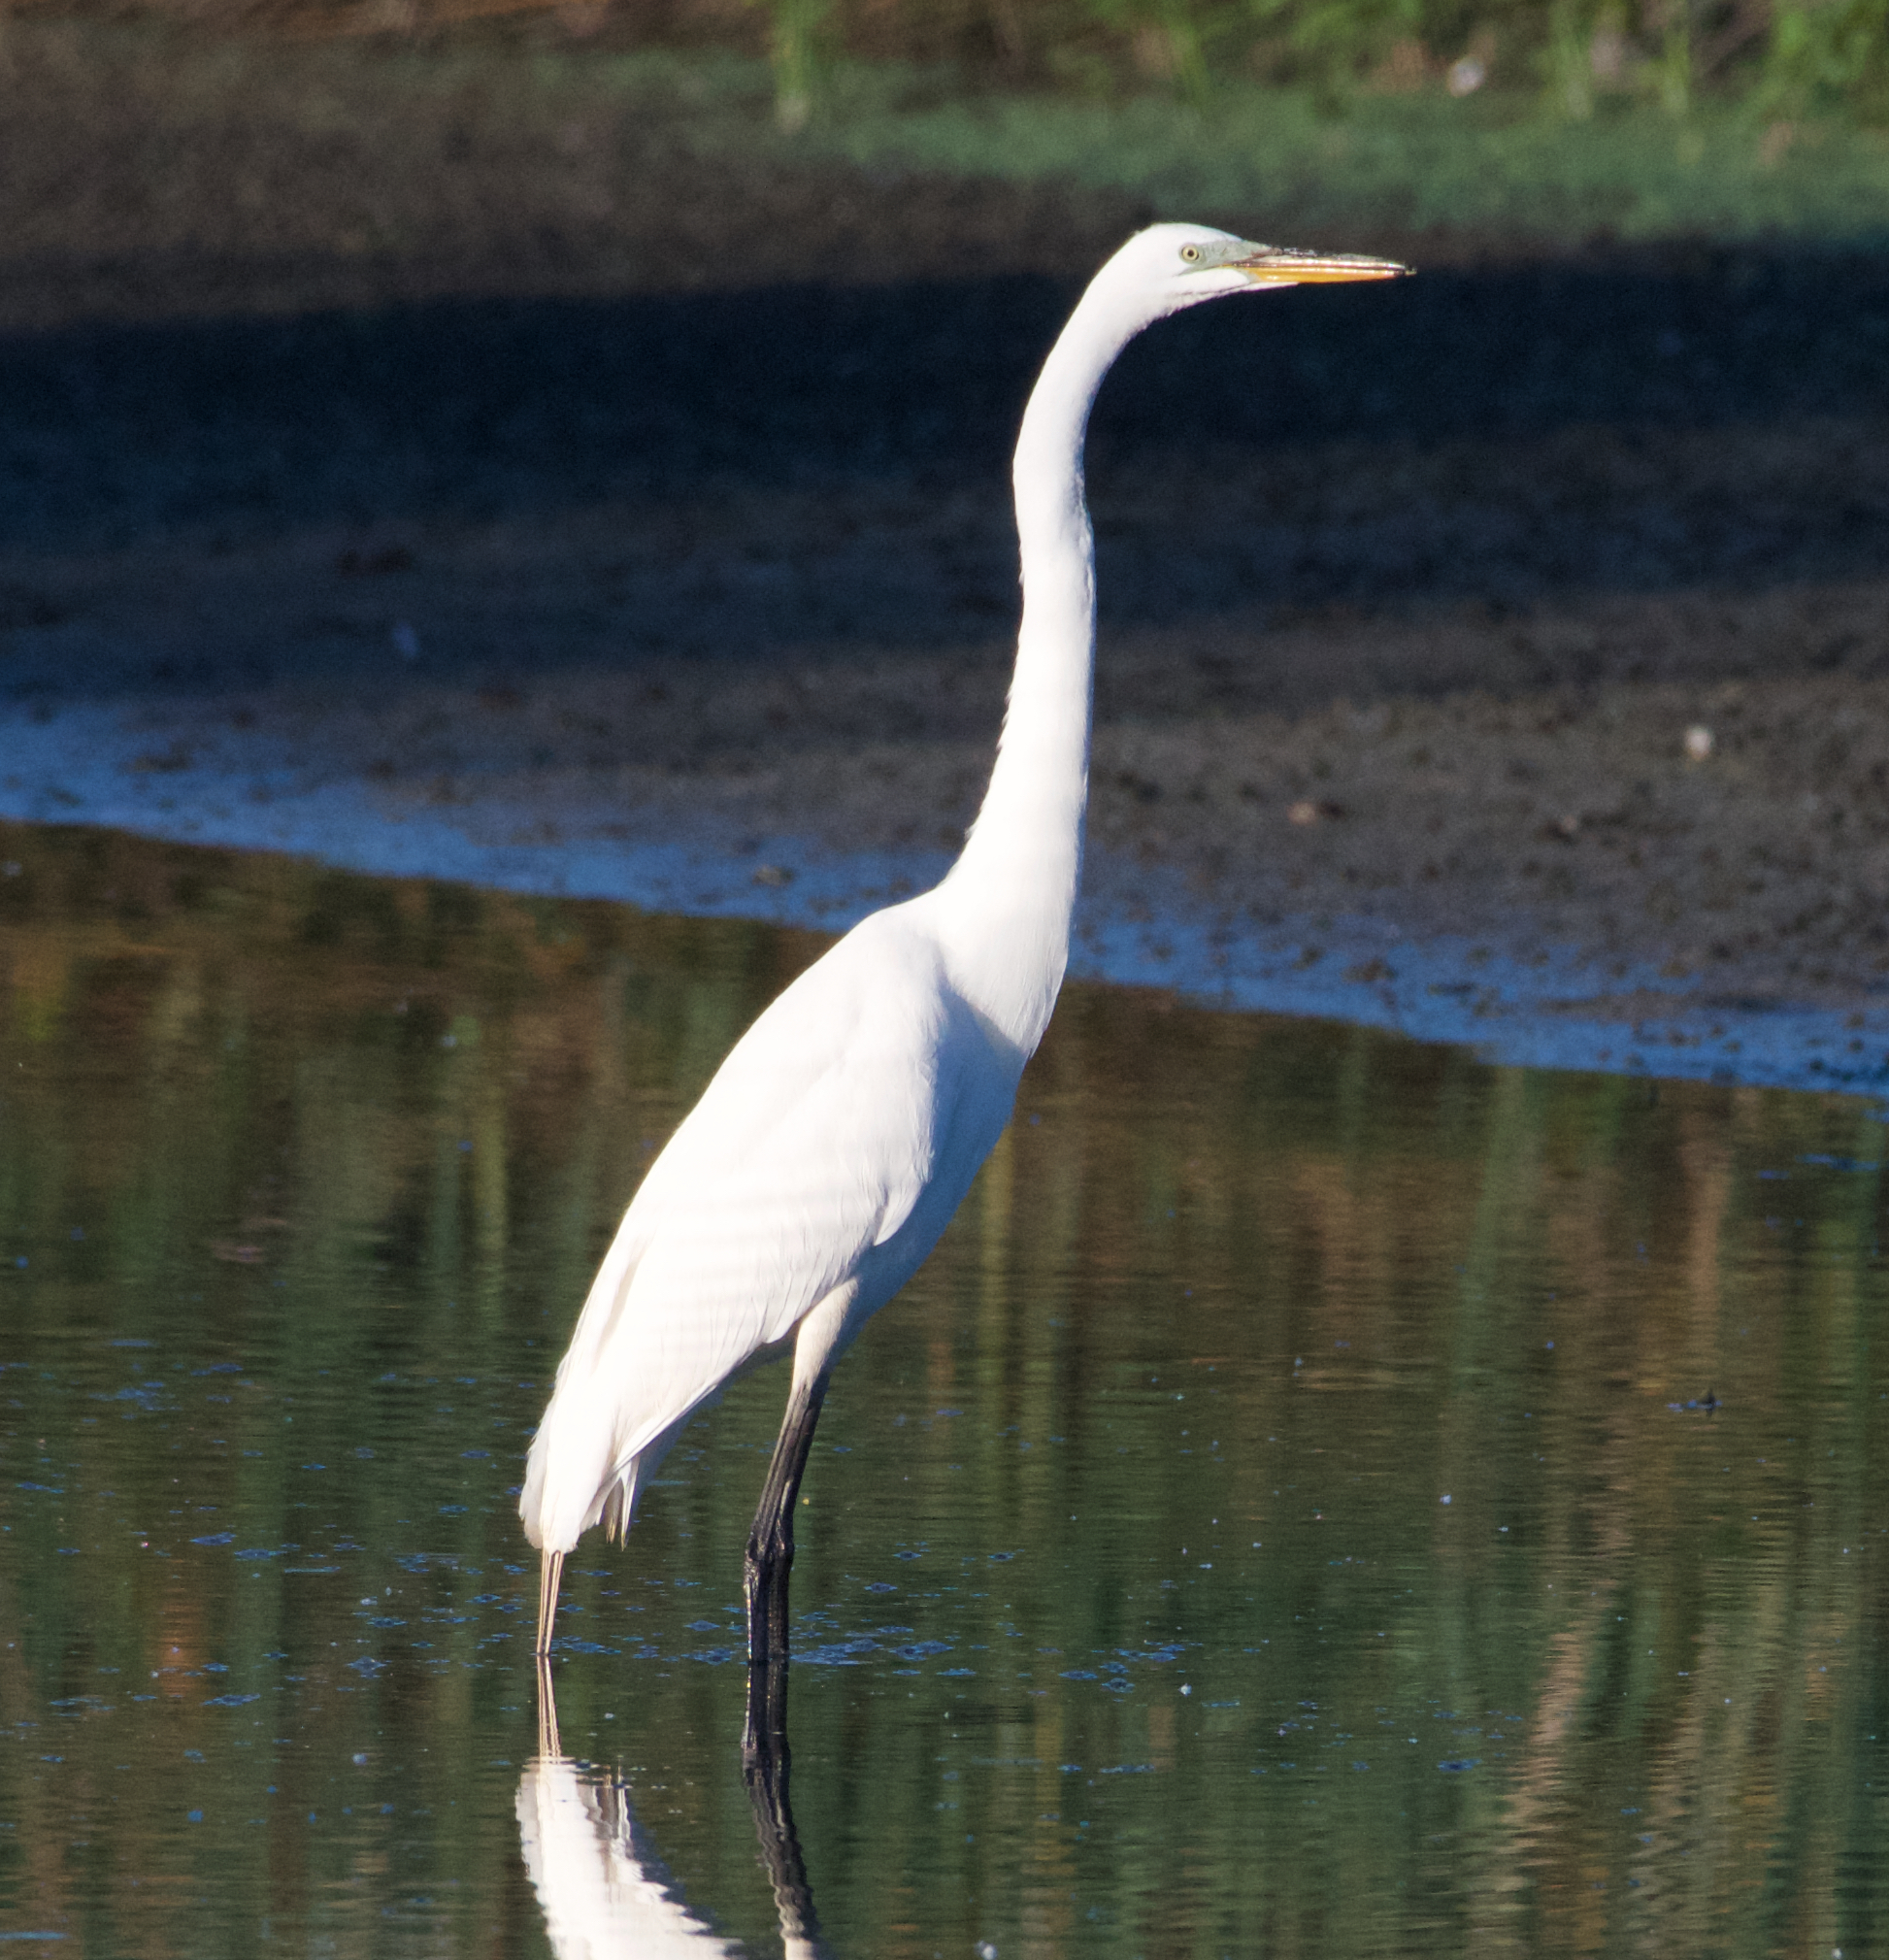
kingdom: Animalia
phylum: Chordata
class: Aves
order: Pelecaniformes
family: Ardeidae
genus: Ardea
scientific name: Ardea alba
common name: Great egret
